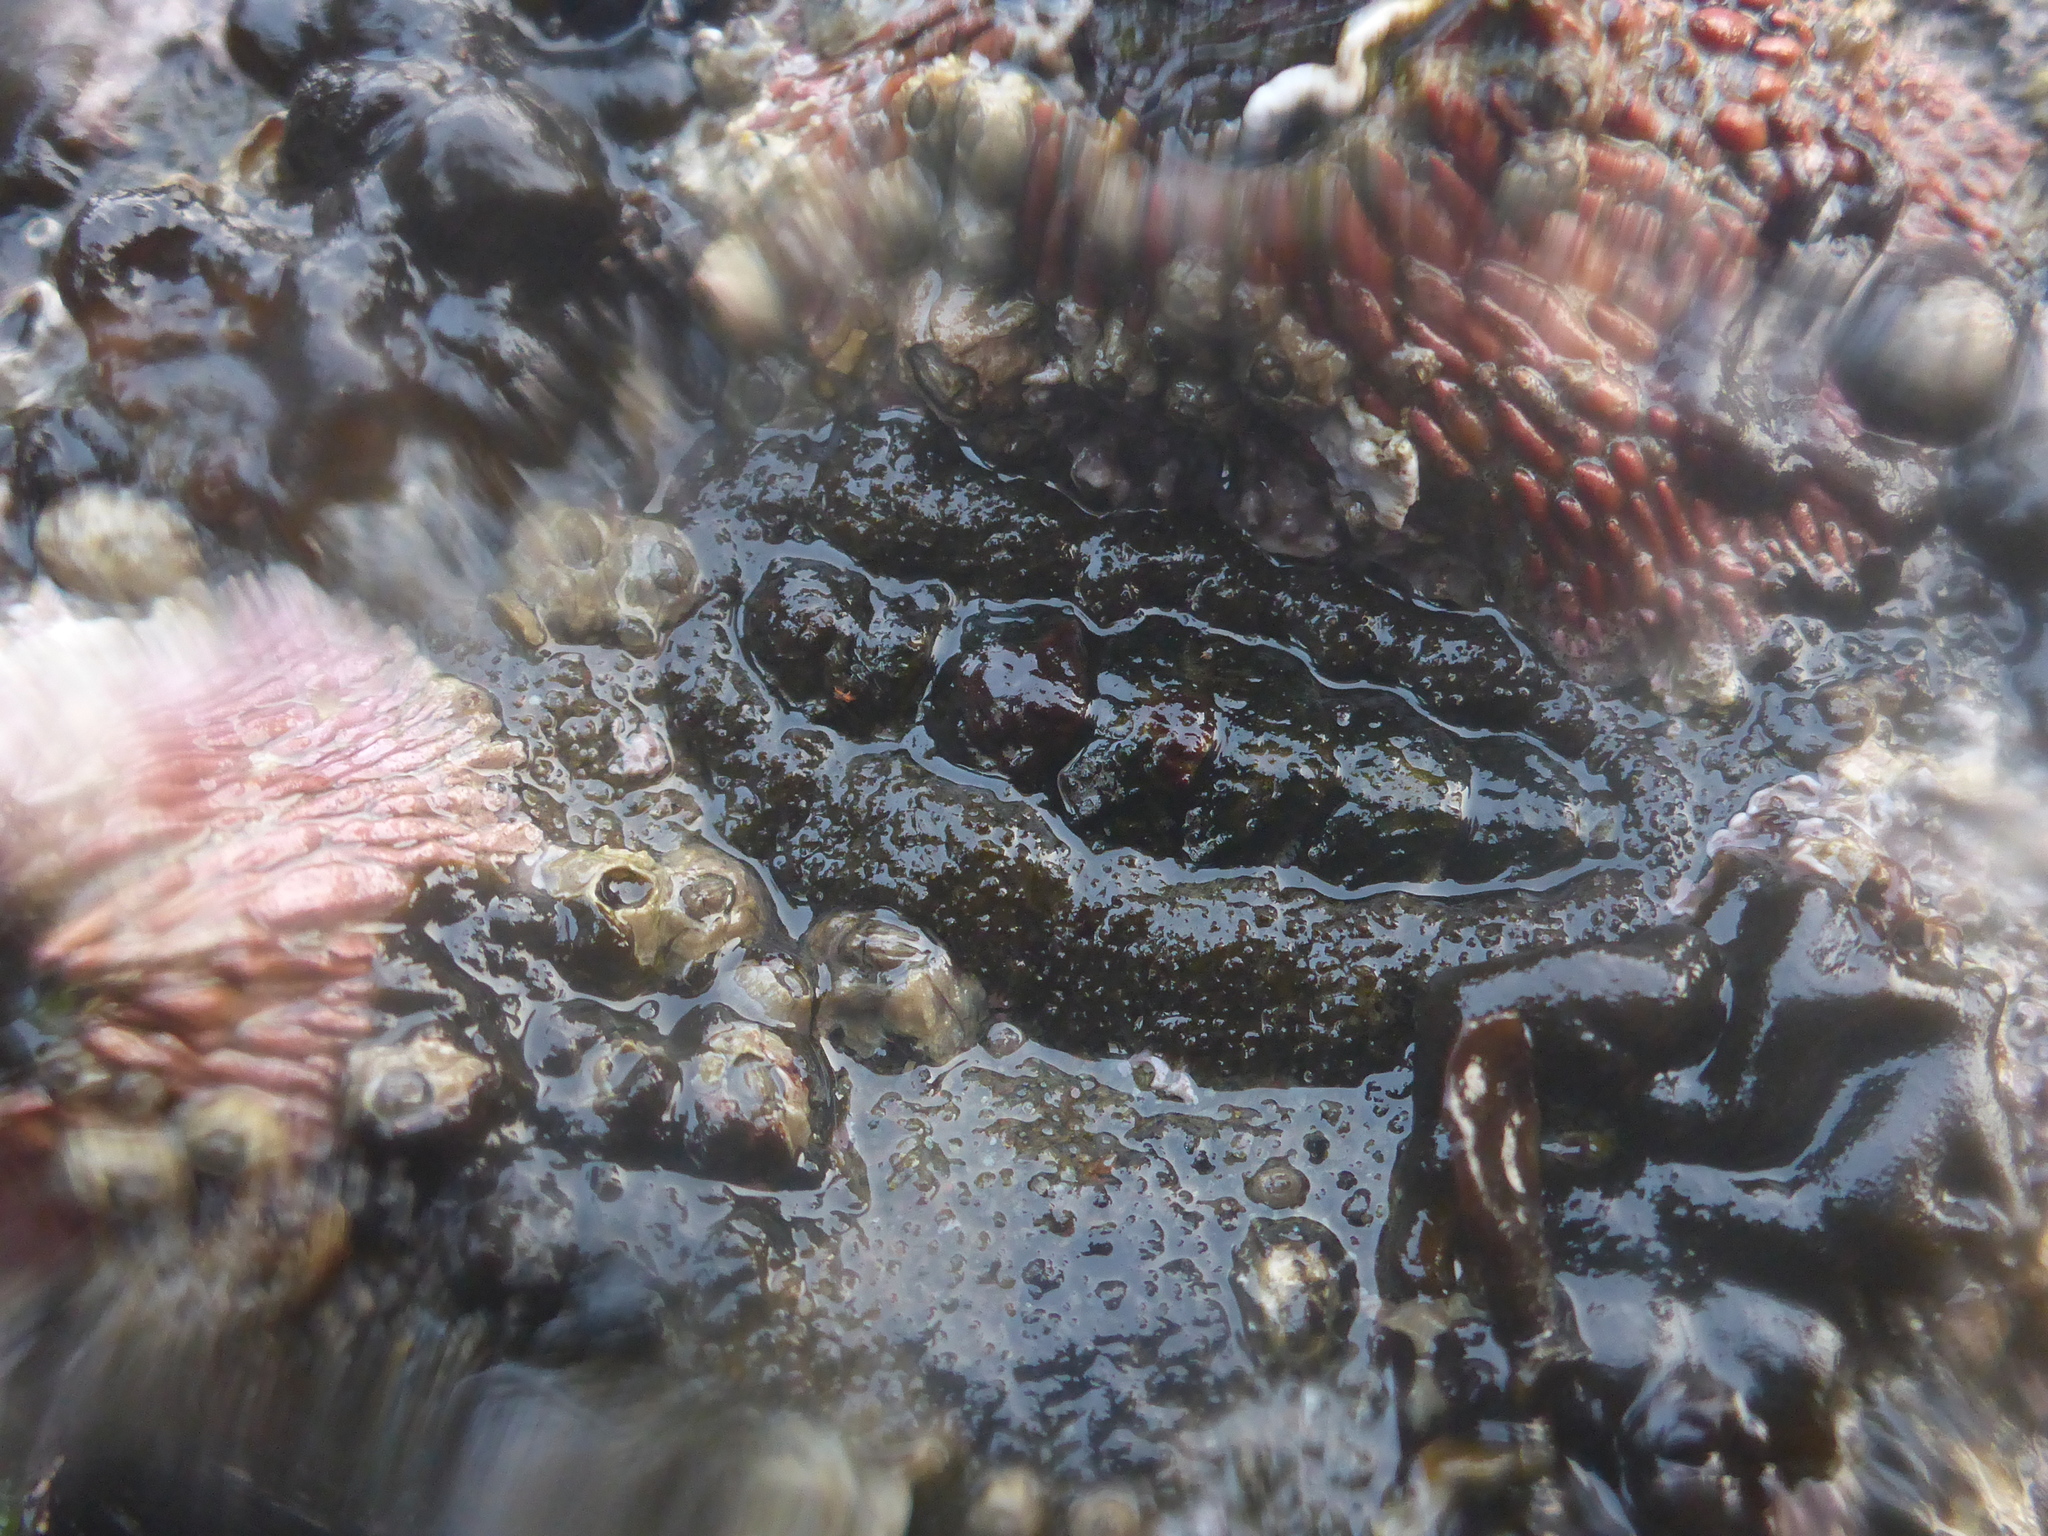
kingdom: Animalia
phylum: Mollusca
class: Polyplacophora
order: Chitonida
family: Tonicellidae
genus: Nuttallina
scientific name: Nuttallina californica
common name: California nuttall chiton
